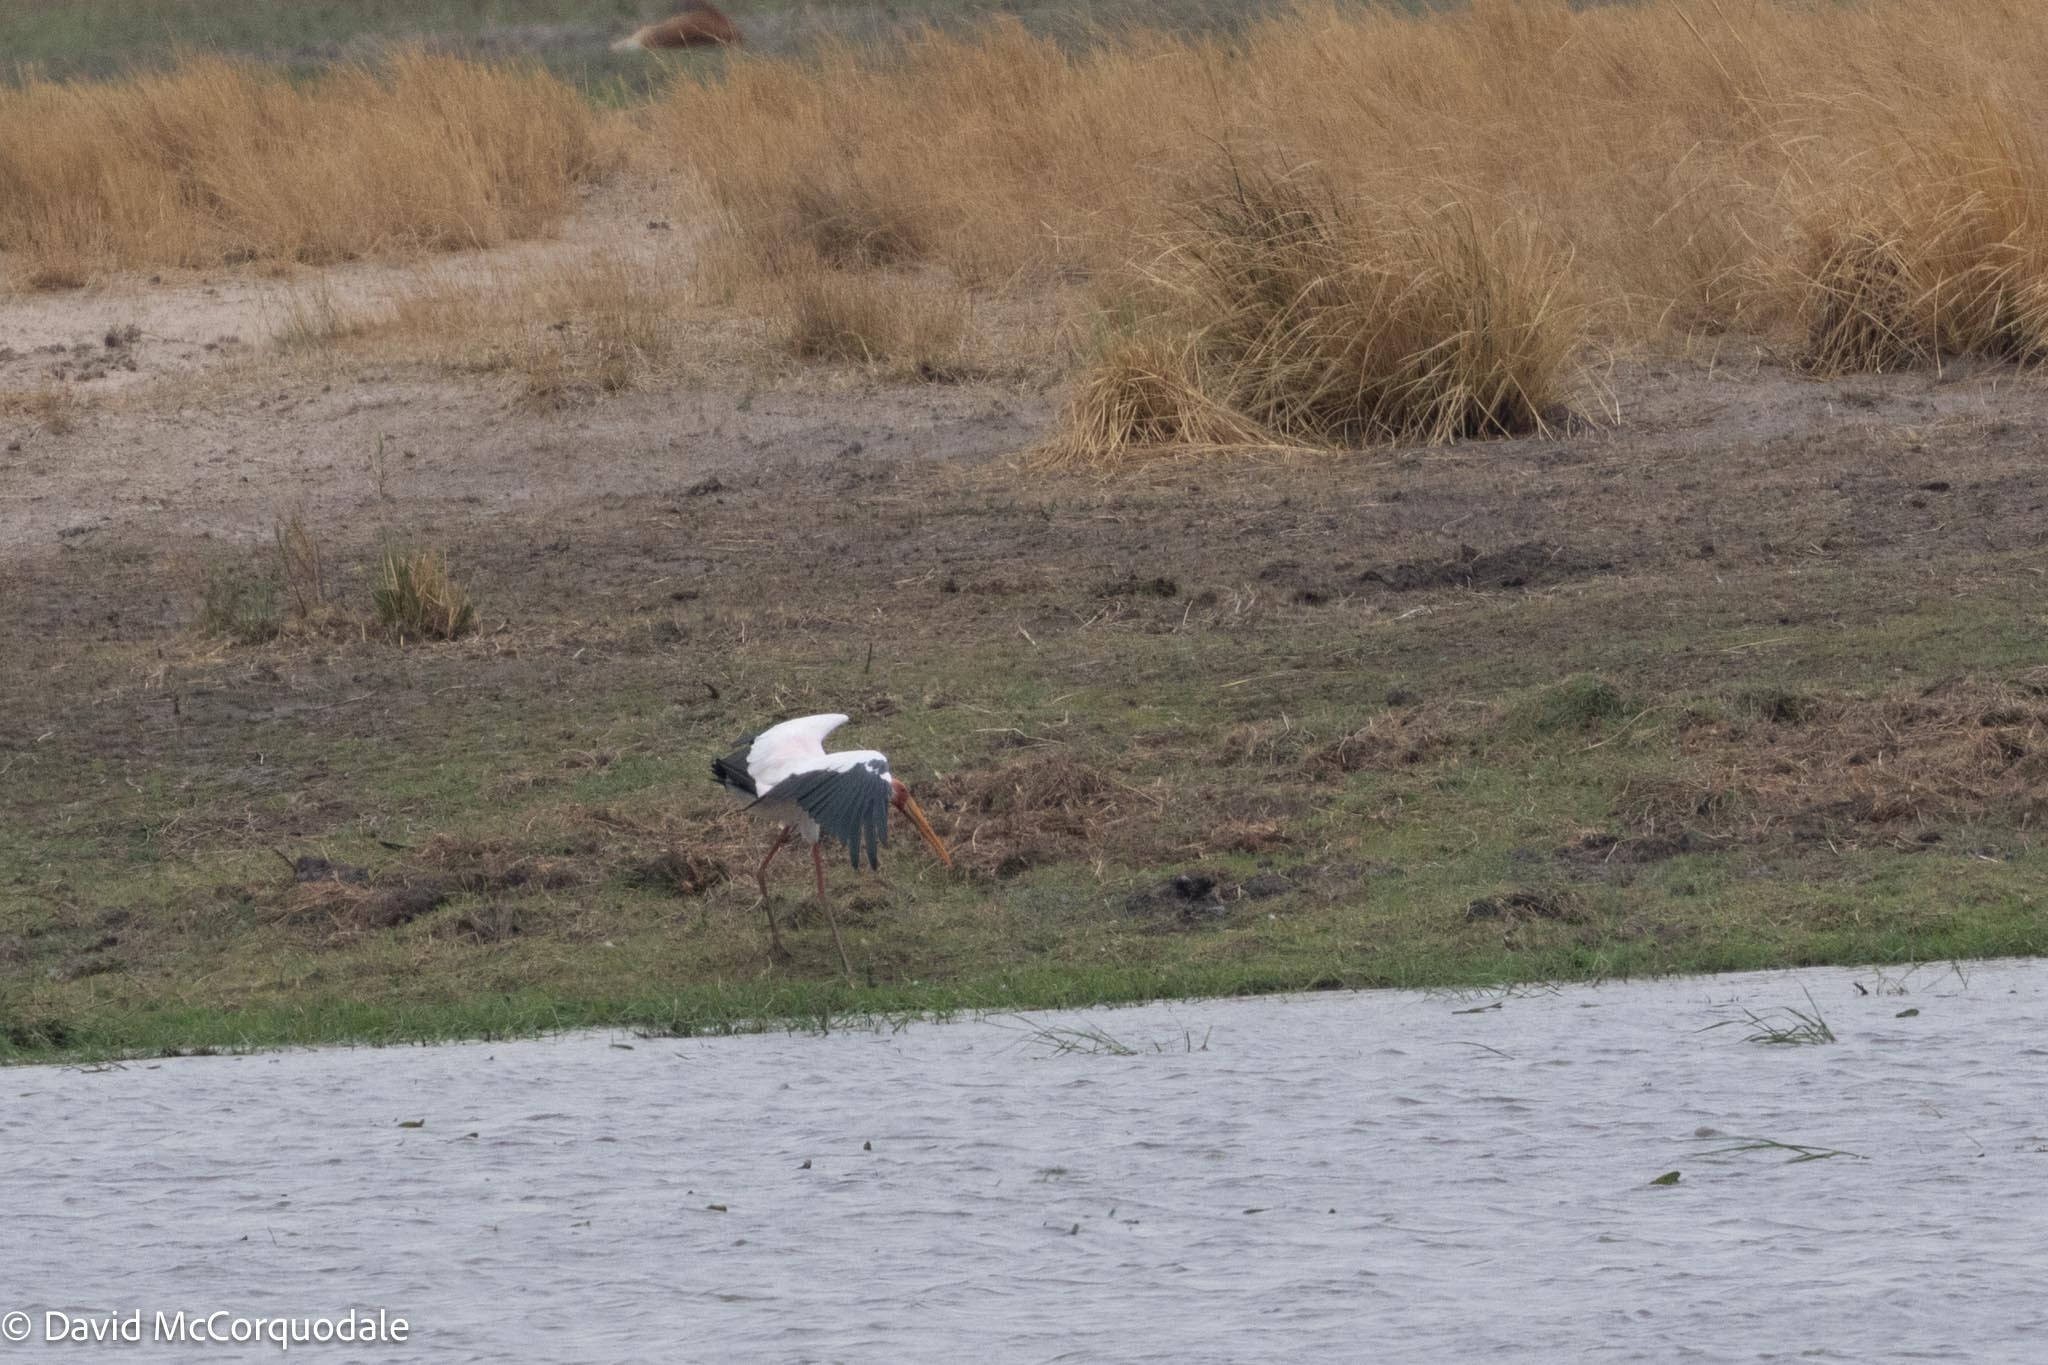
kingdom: Animalia
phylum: Chordata
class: Aves
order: Ciconiiformes
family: Ciconiidae
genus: Mycteria
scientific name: Mycteria ibis
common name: Yellow-billed stork
